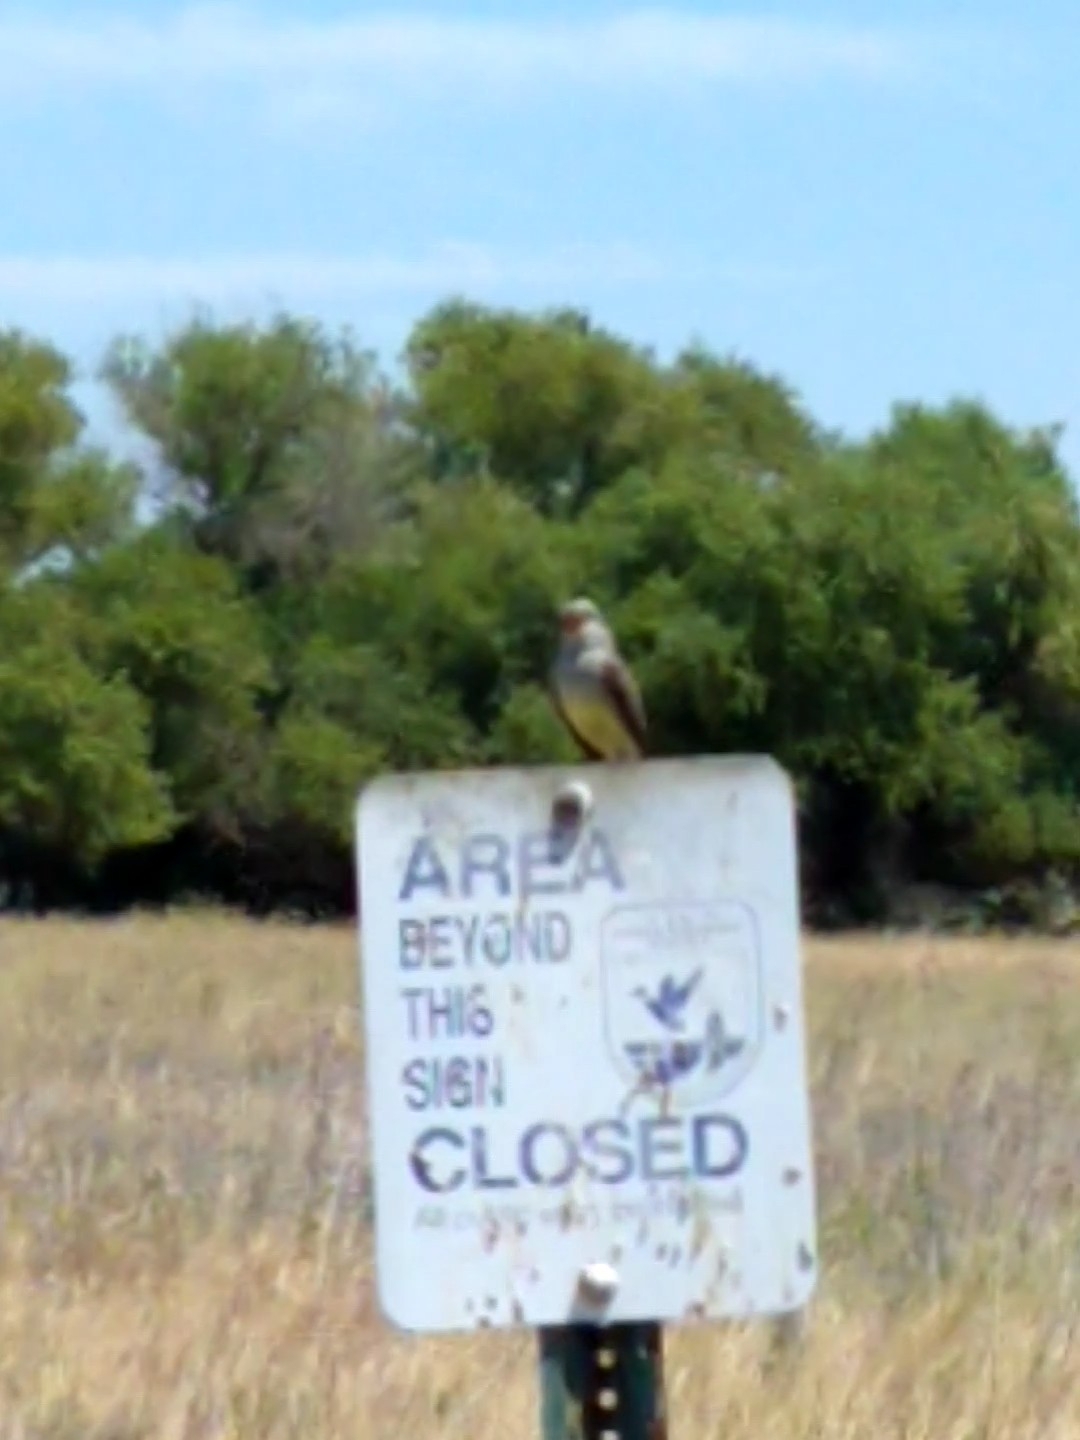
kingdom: Animalia
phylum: Chordata
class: Aves
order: Passeriformes
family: Tyrannidae
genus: Tyrannus
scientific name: Tyrannus verticalis
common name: Western kingbird
